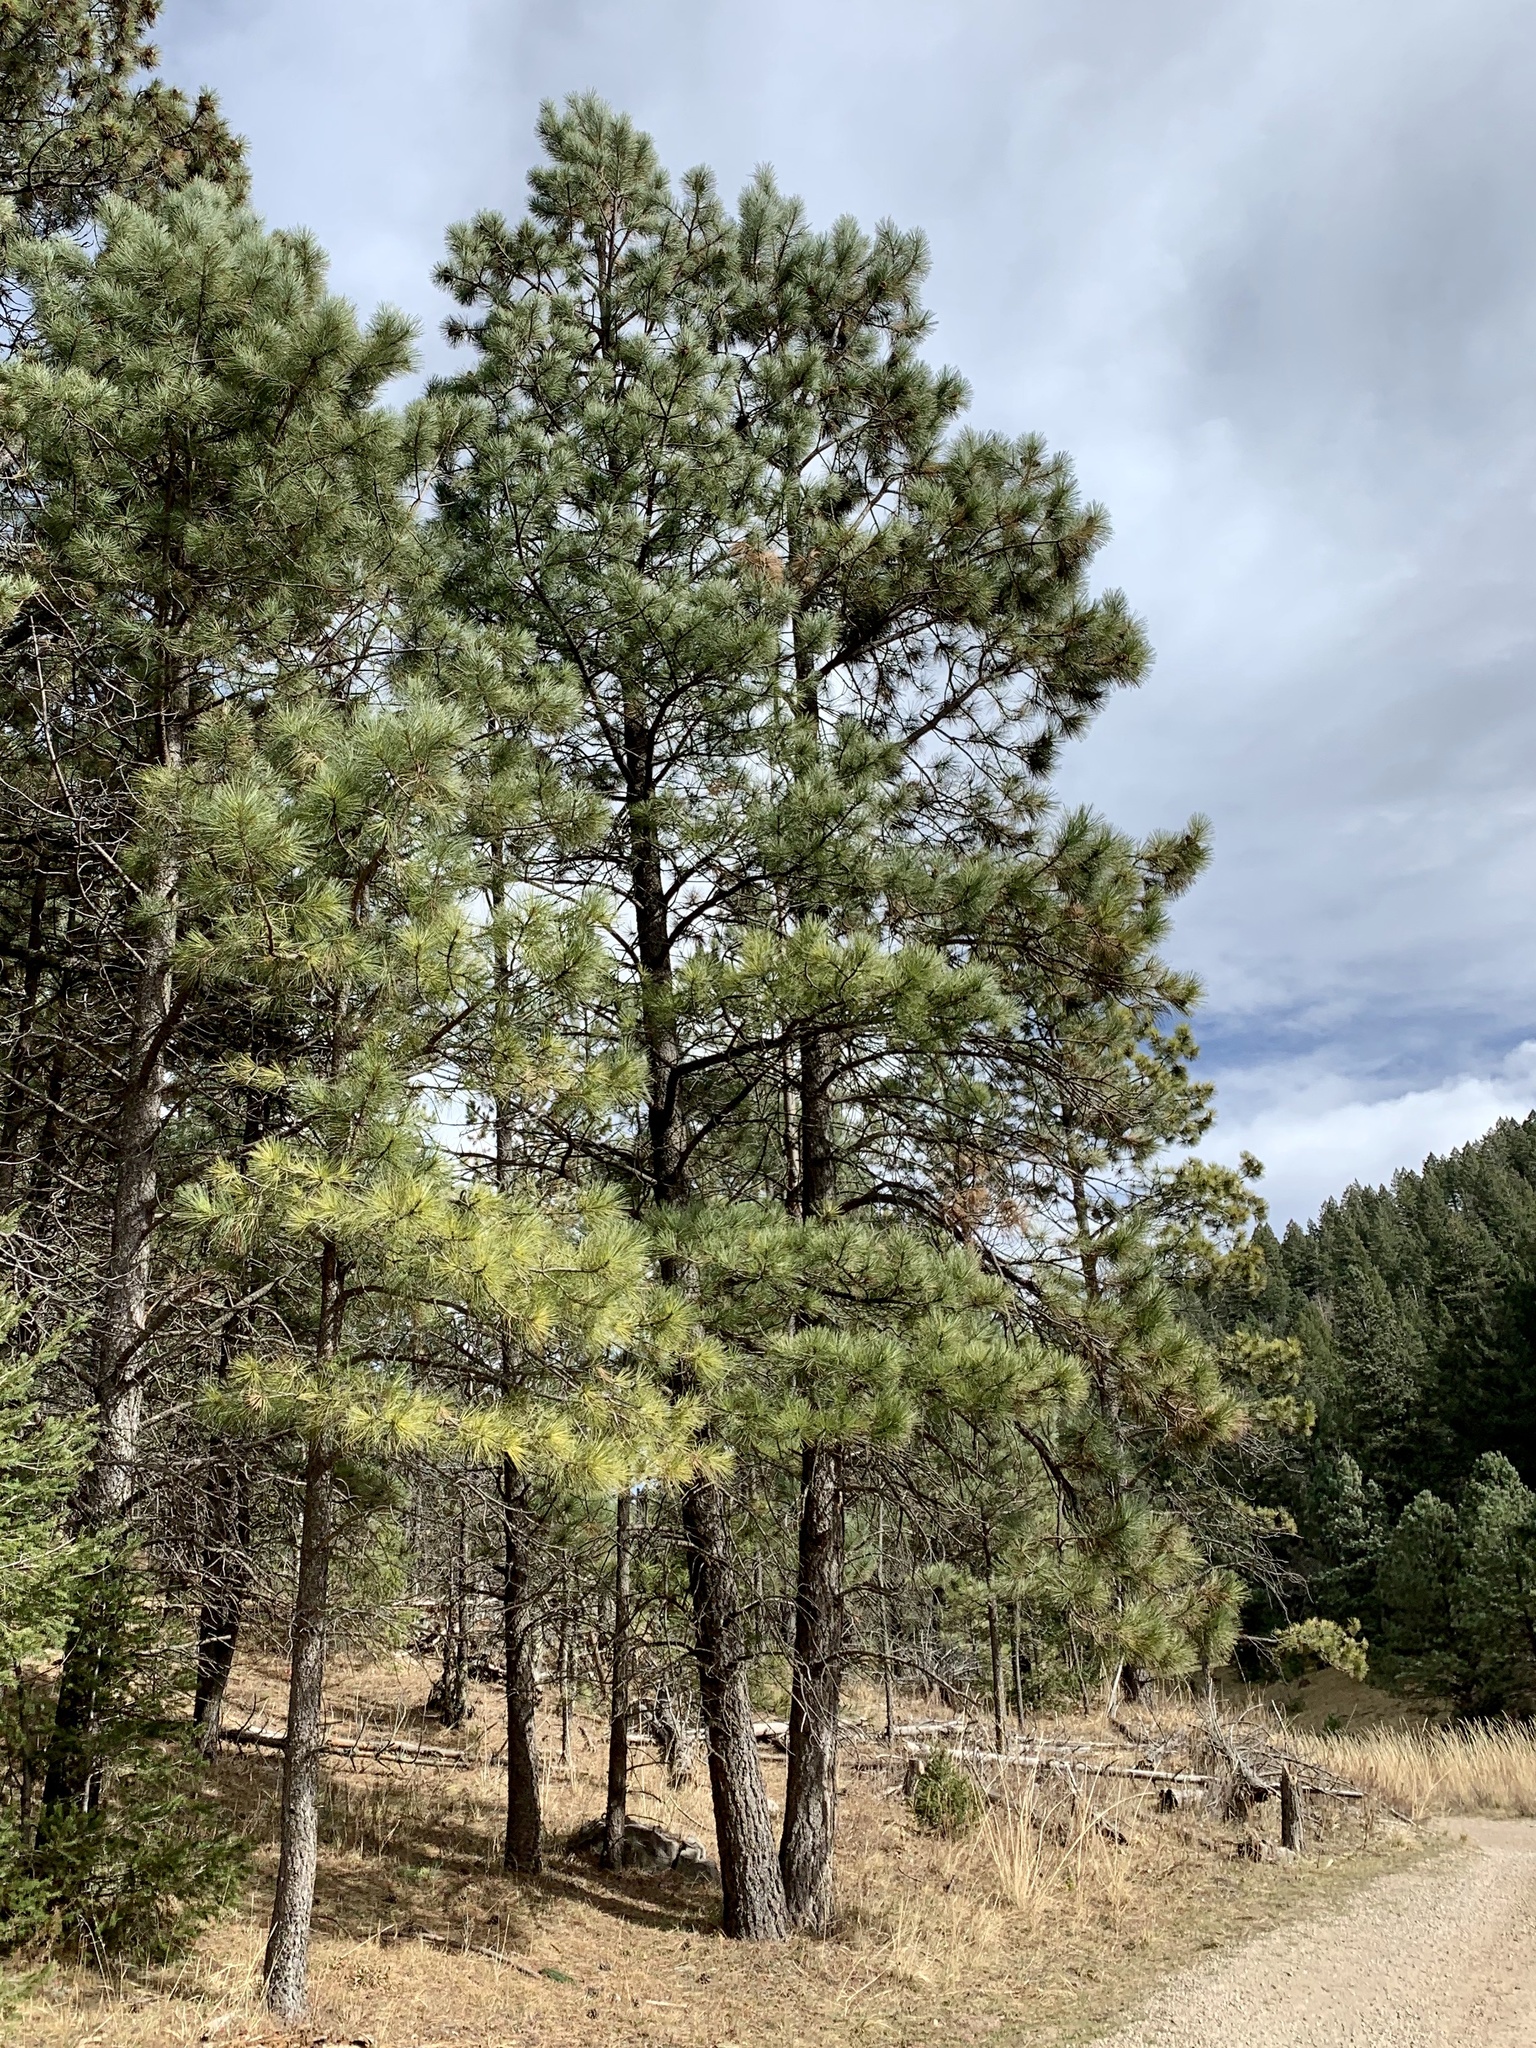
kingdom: Plantae
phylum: Tracheophyta
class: Pinopsida
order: Pinales
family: Pinaceae
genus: Pinus
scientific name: Pinus ponderosa
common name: Western yellow-pine
